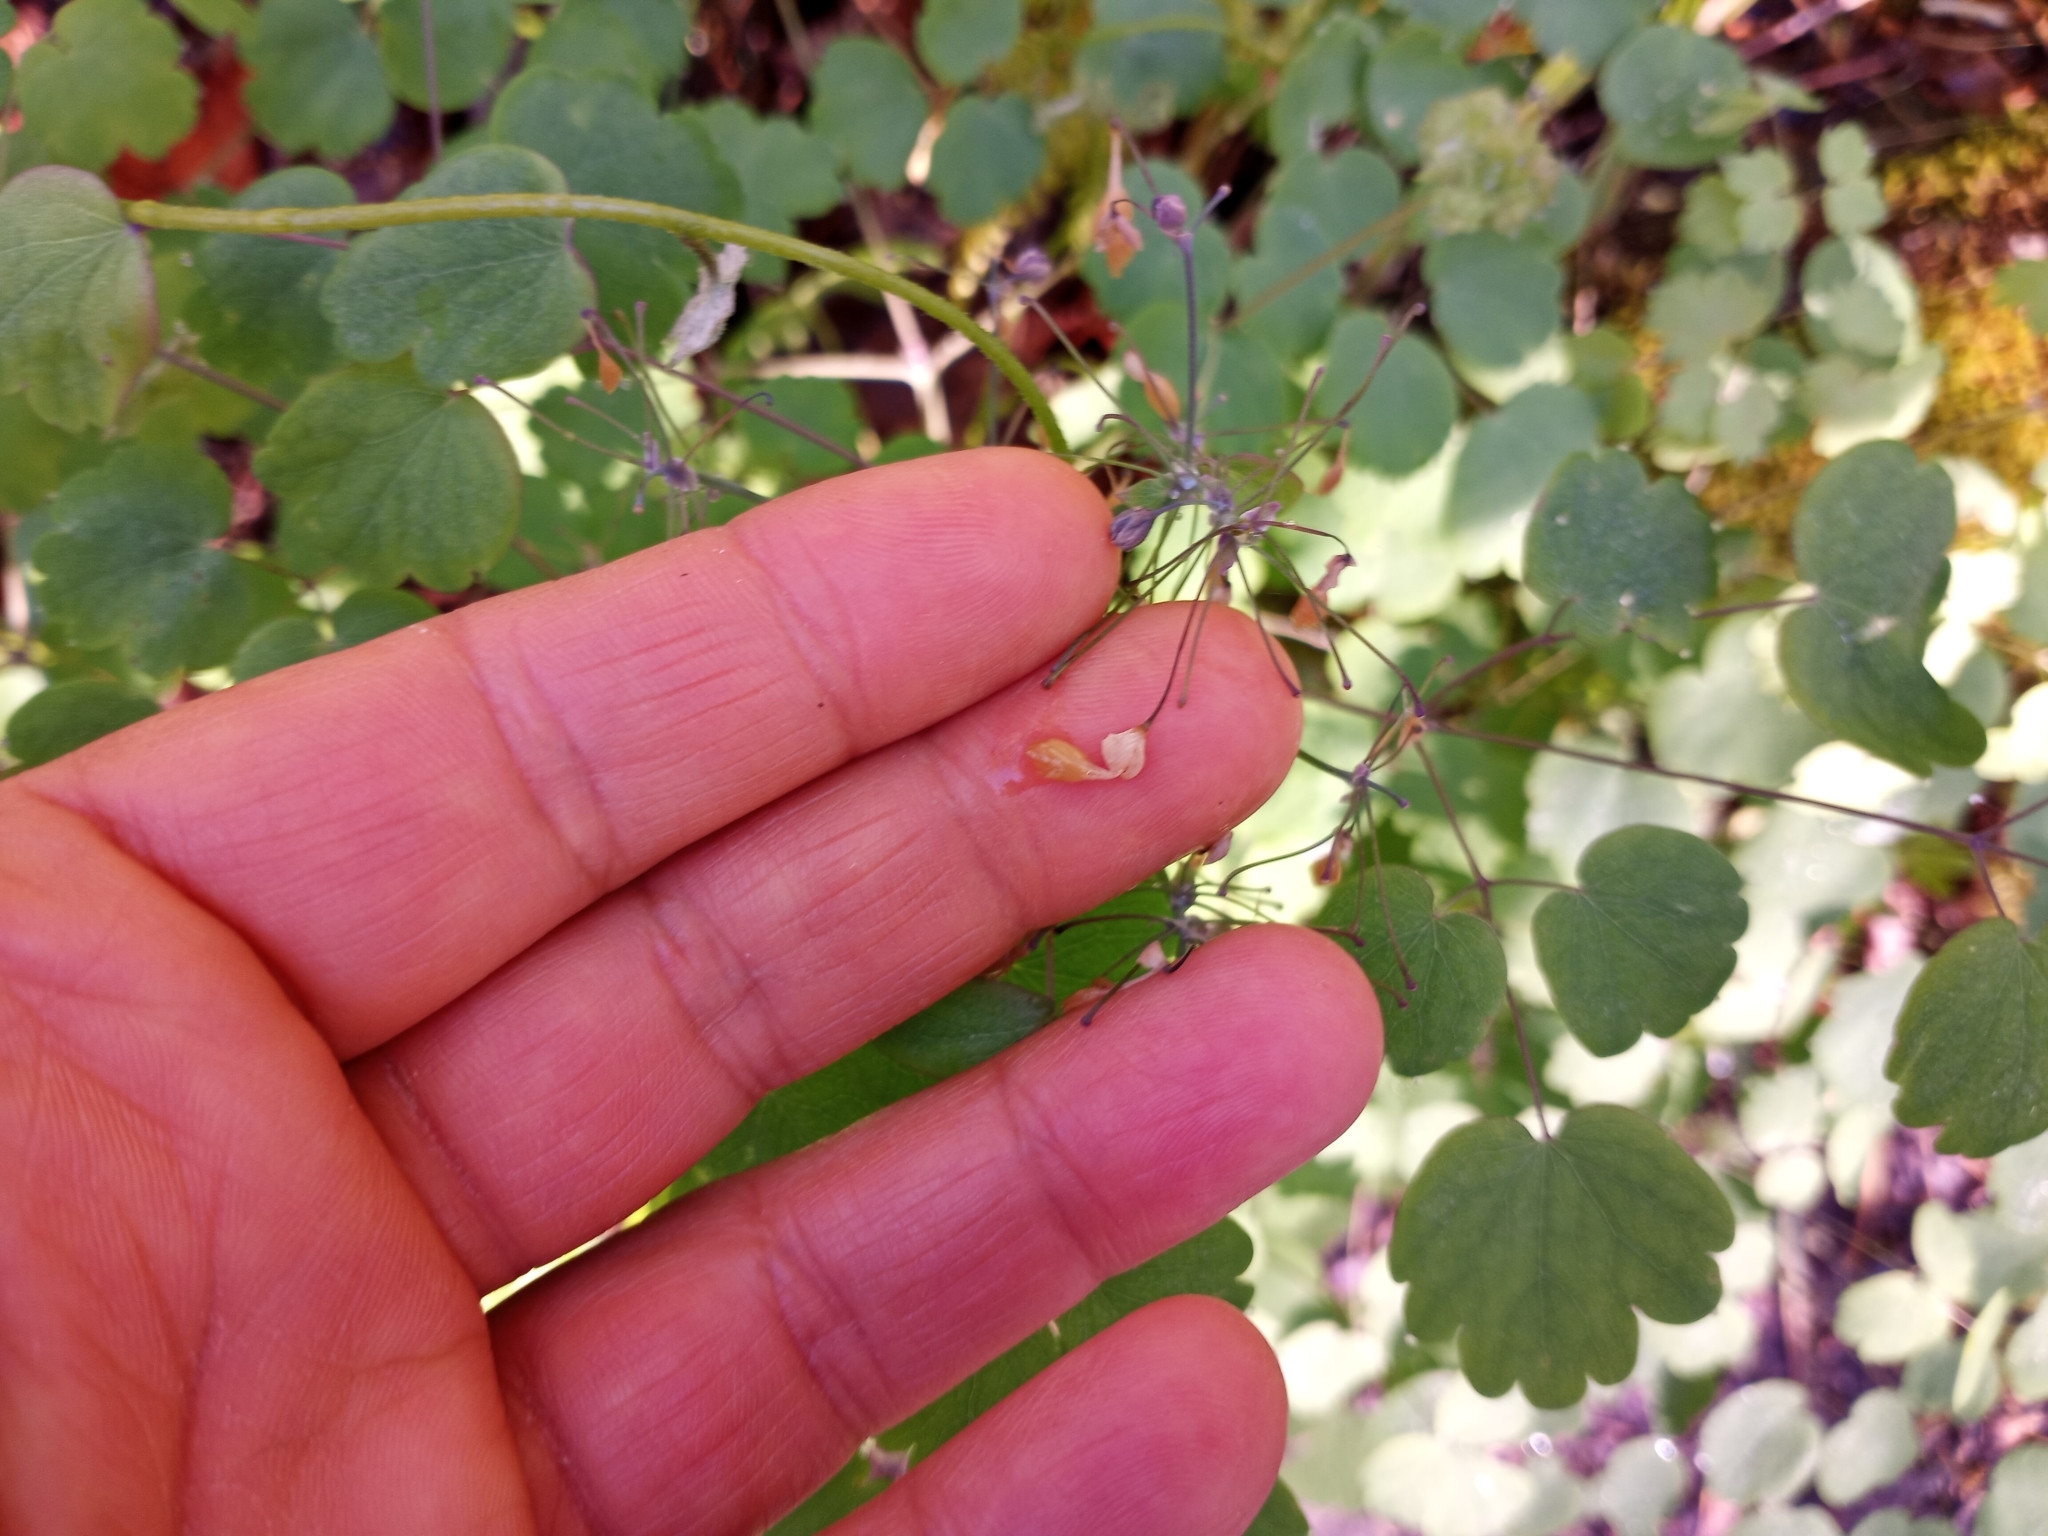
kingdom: Plantae
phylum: Tracheophyta
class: Magnoliopsida
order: Ranunculales
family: Ranunculaceae
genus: Thalictrum
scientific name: Thalictrum dioicum
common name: Early meadow-rue
